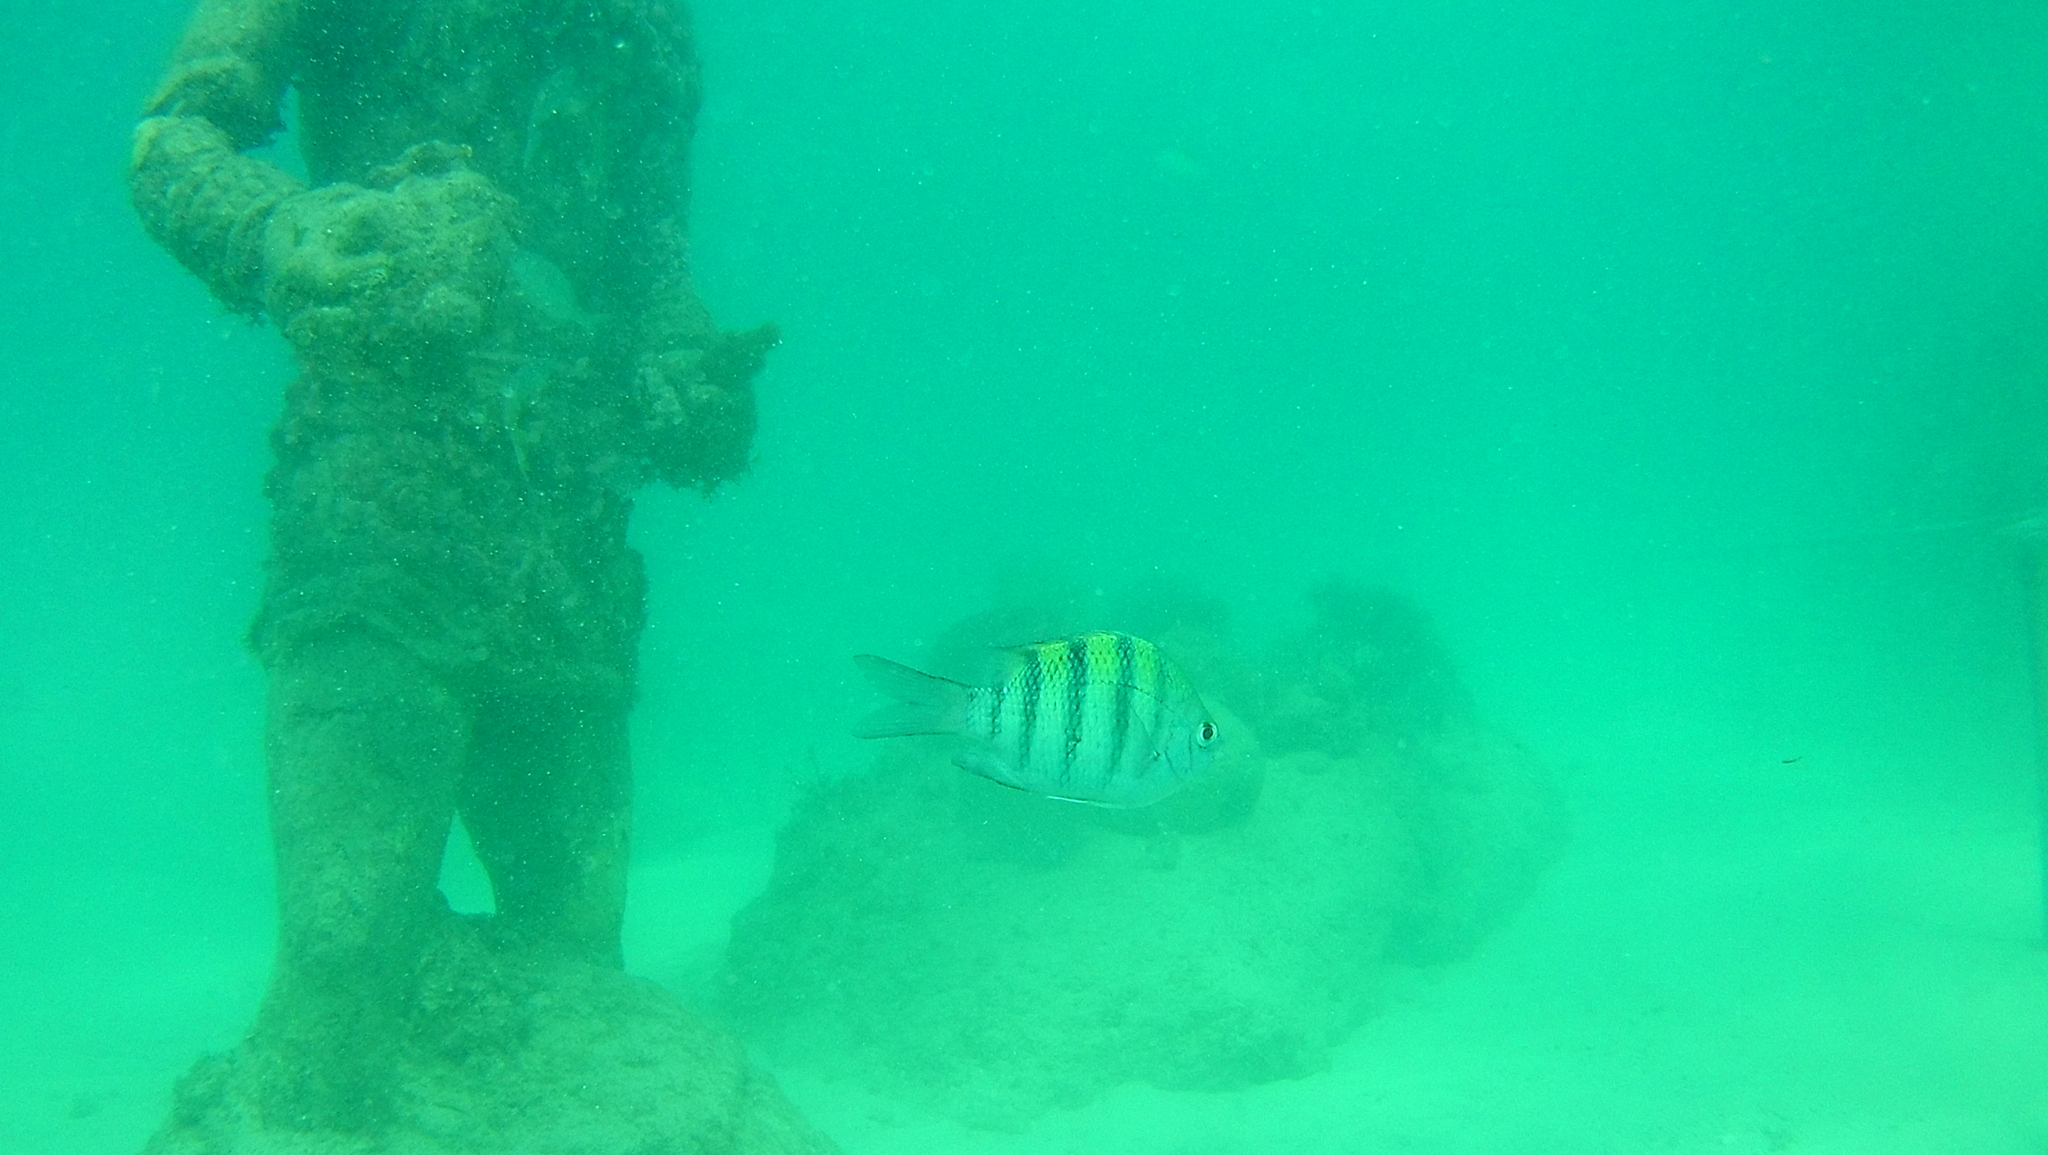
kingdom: Animalia
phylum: Chordata
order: Perciformes
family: Pomacentridae
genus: Abudefduf
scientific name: Abudefduf saxatilis
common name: Sergeant major
